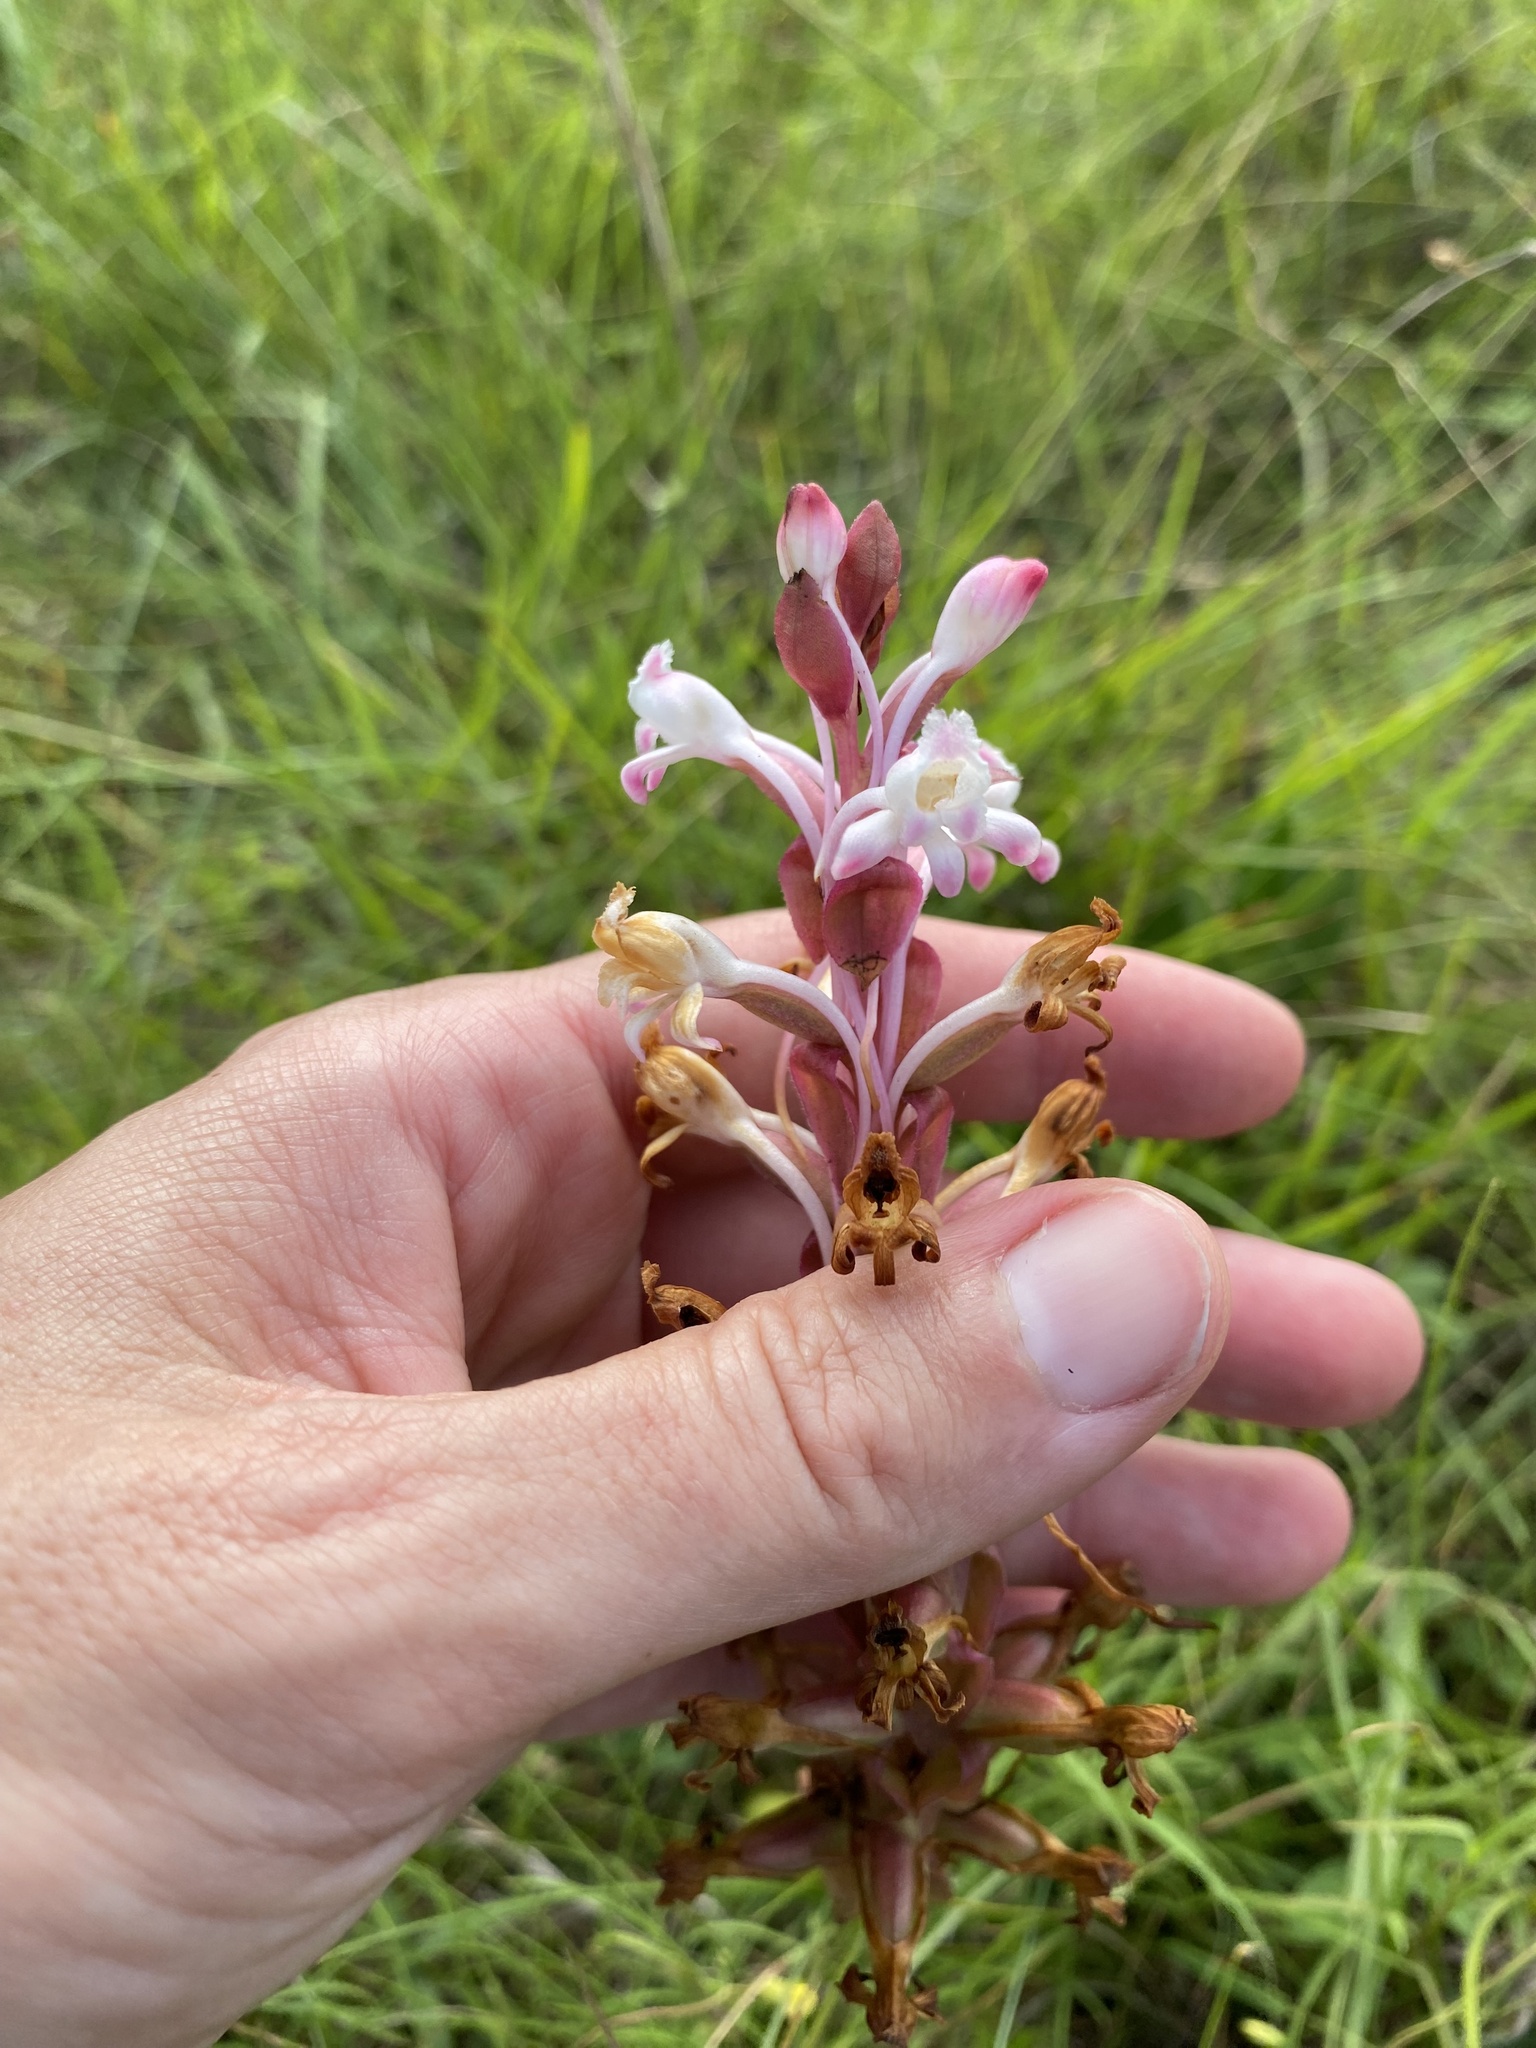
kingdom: Plantae
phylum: Tracheophyta
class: Liliopsida
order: Asparagales
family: Orchidaceae
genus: Satyrium
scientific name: Satyrium longicauda
